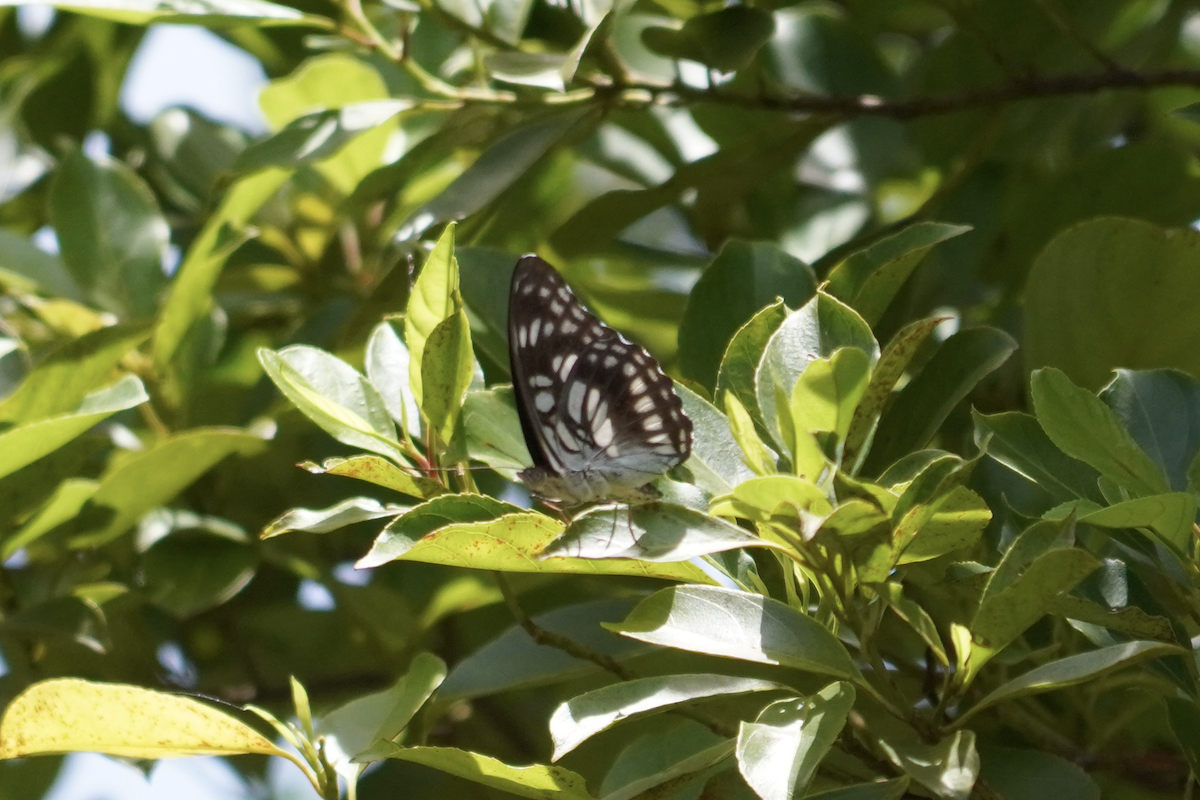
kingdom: Animalia
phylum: Arthropoda
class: Insecta
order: Lepidoptera
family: Nymphalidae
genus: Parathyma
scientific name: Parathyma ranga
